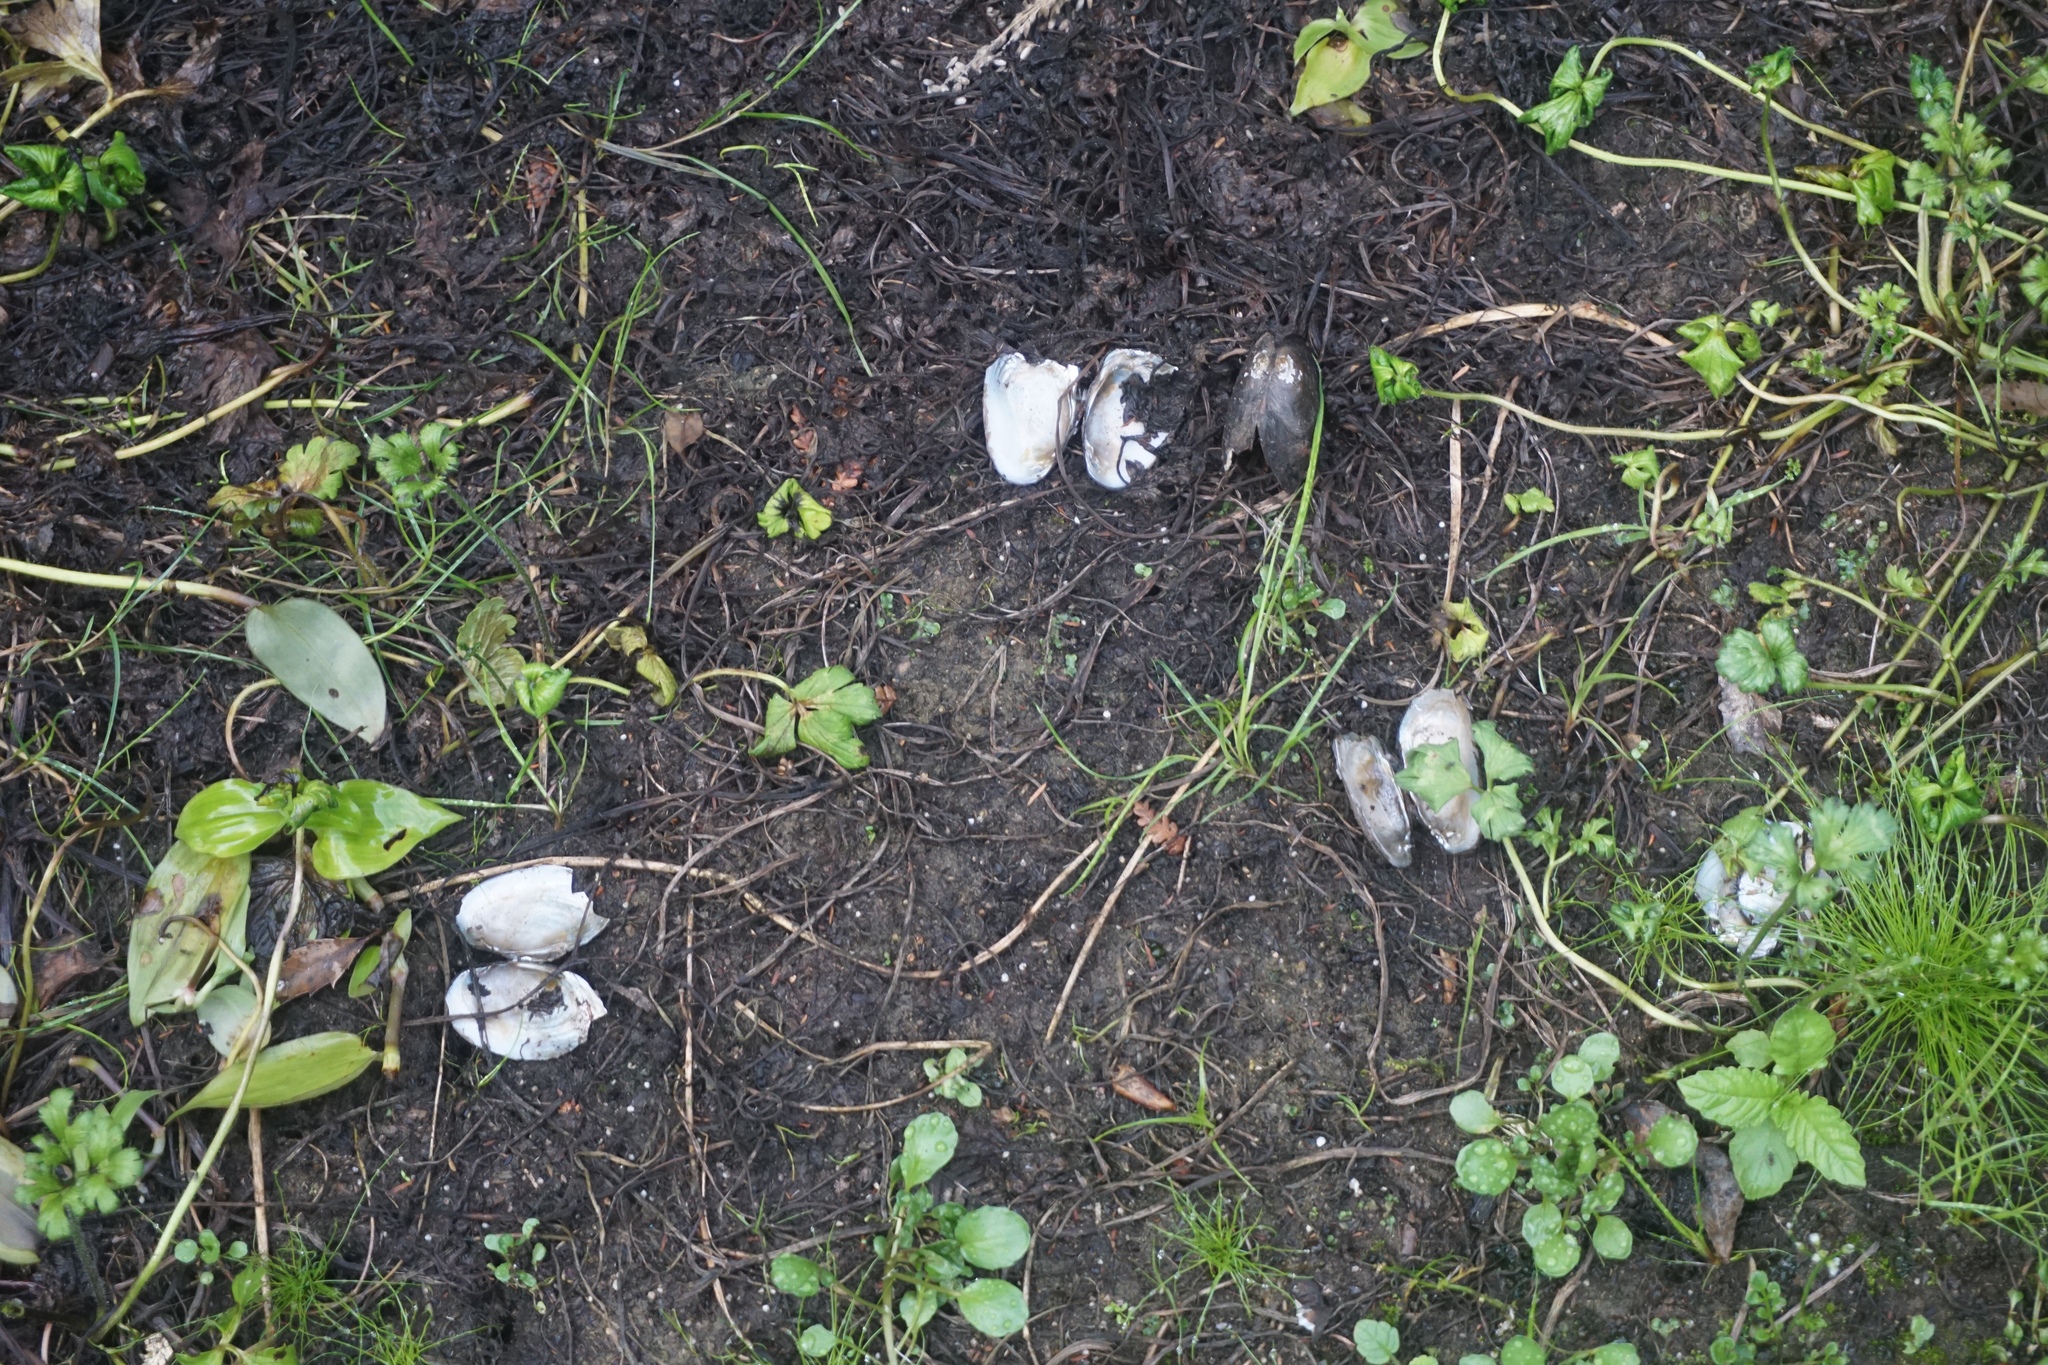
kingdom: Animalia
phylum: Mollusca
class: Bivalvia
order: Unionida
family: Hyriidae
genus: Echyridella
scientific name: Echyridella menziesii
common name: New zealand freshwater mussel
